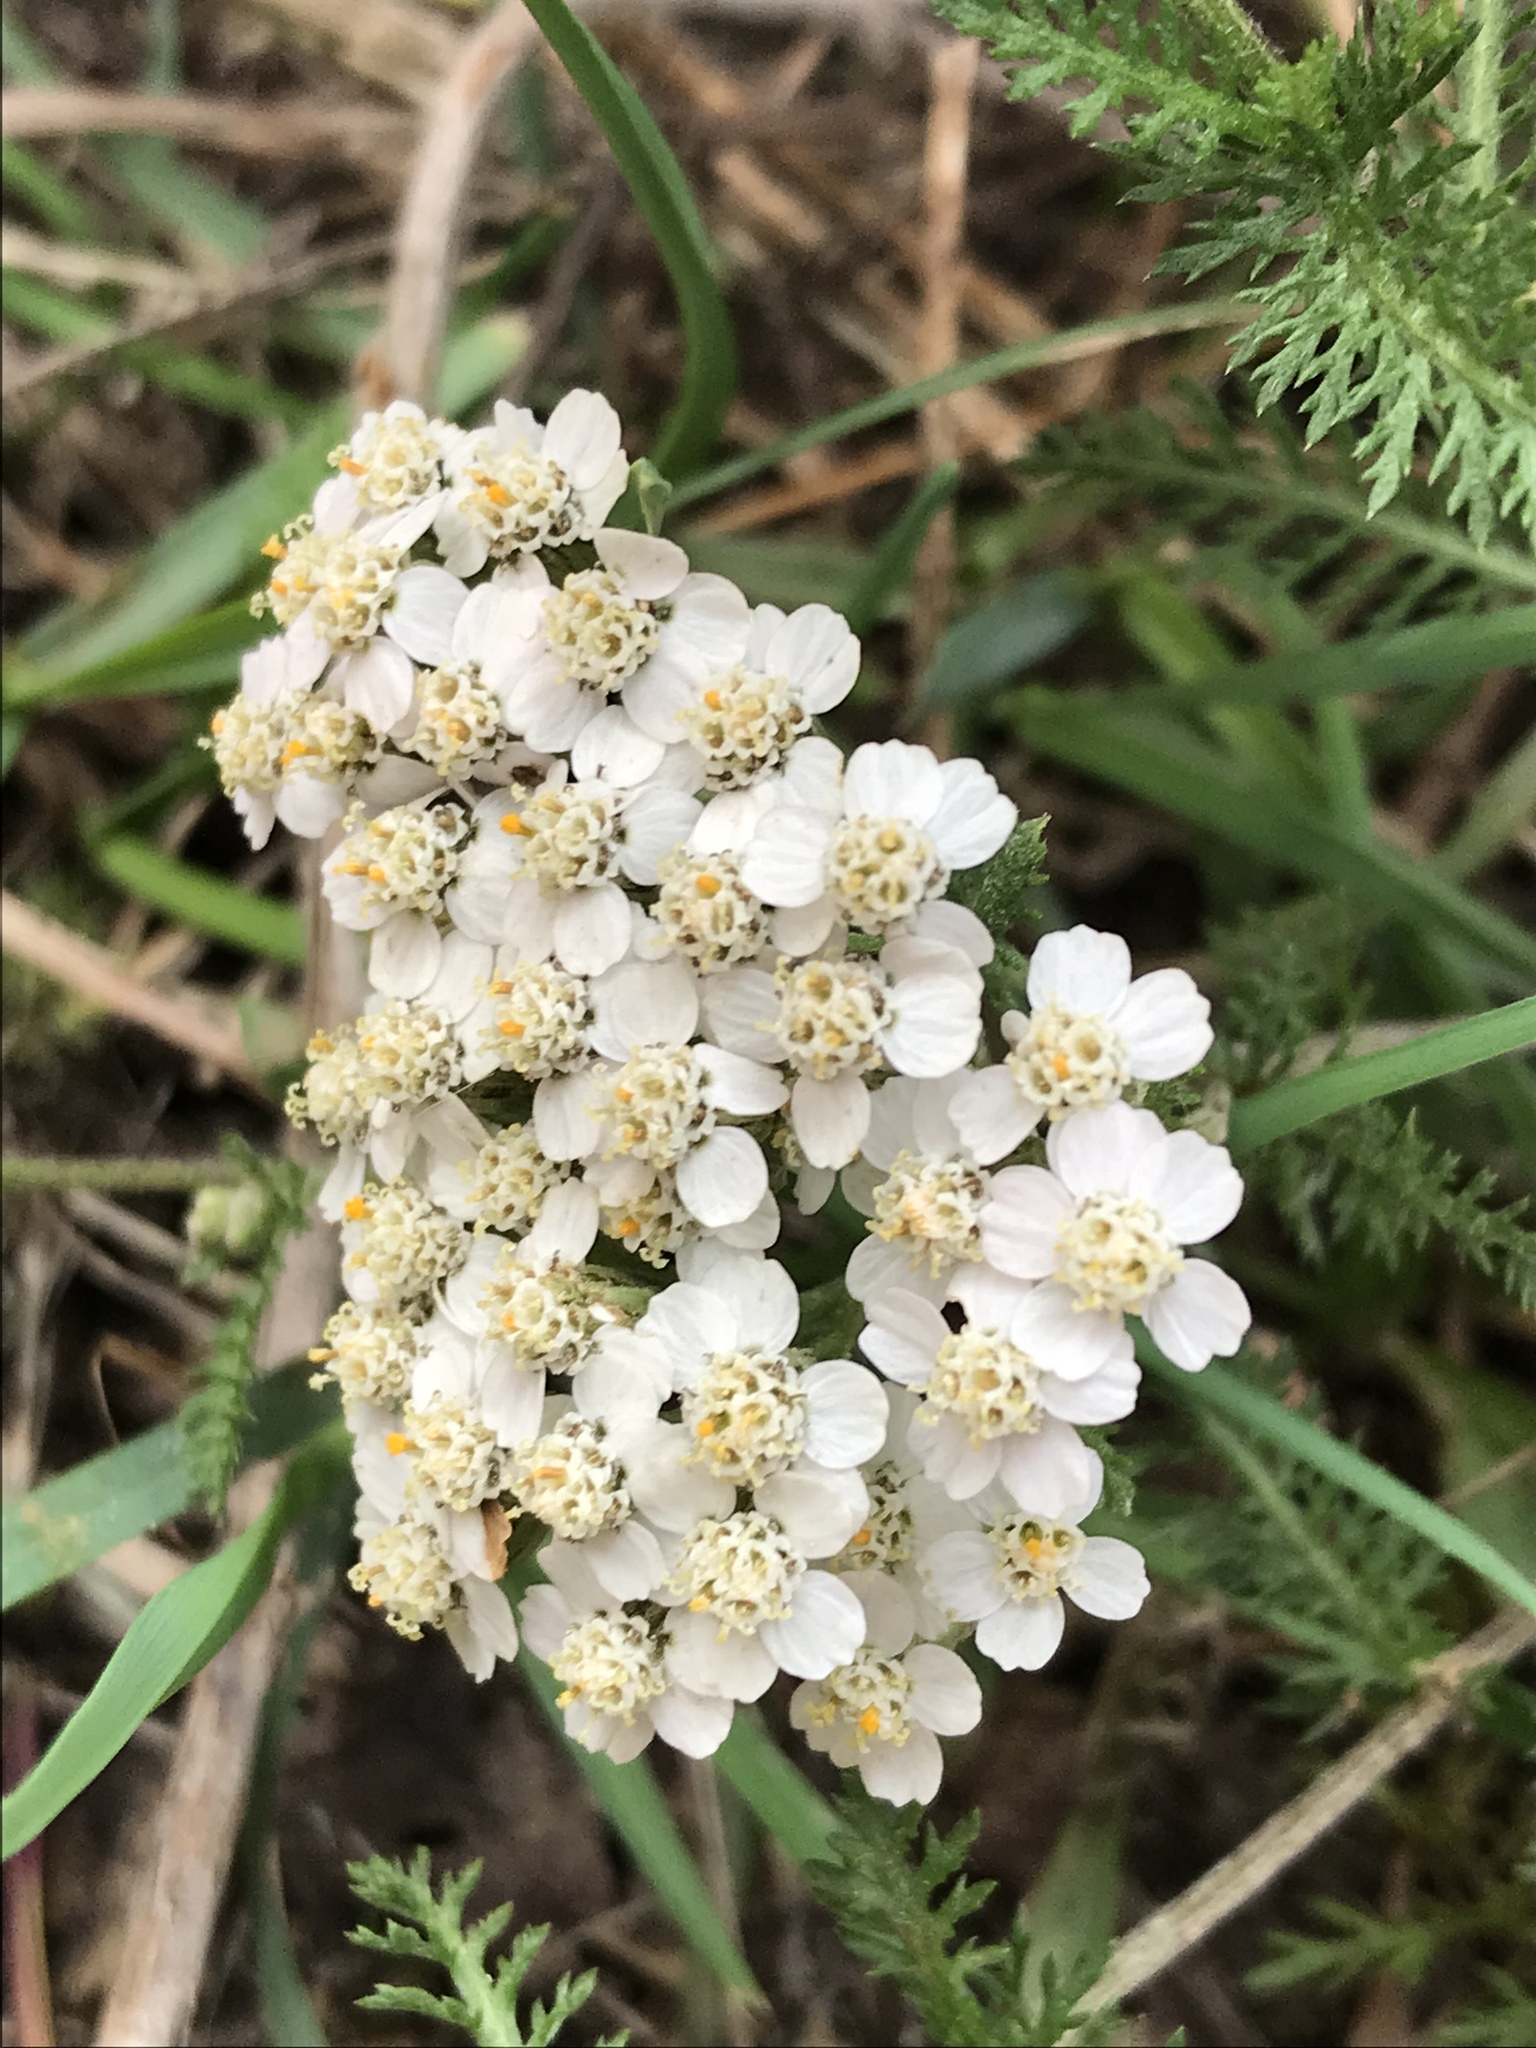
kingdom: Plantae
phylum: Tracheophyta
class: Magnoliopsida
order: Asterales
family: Asteraceae
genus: Achillea
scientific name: Achillea millefolium
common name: Yarrow
